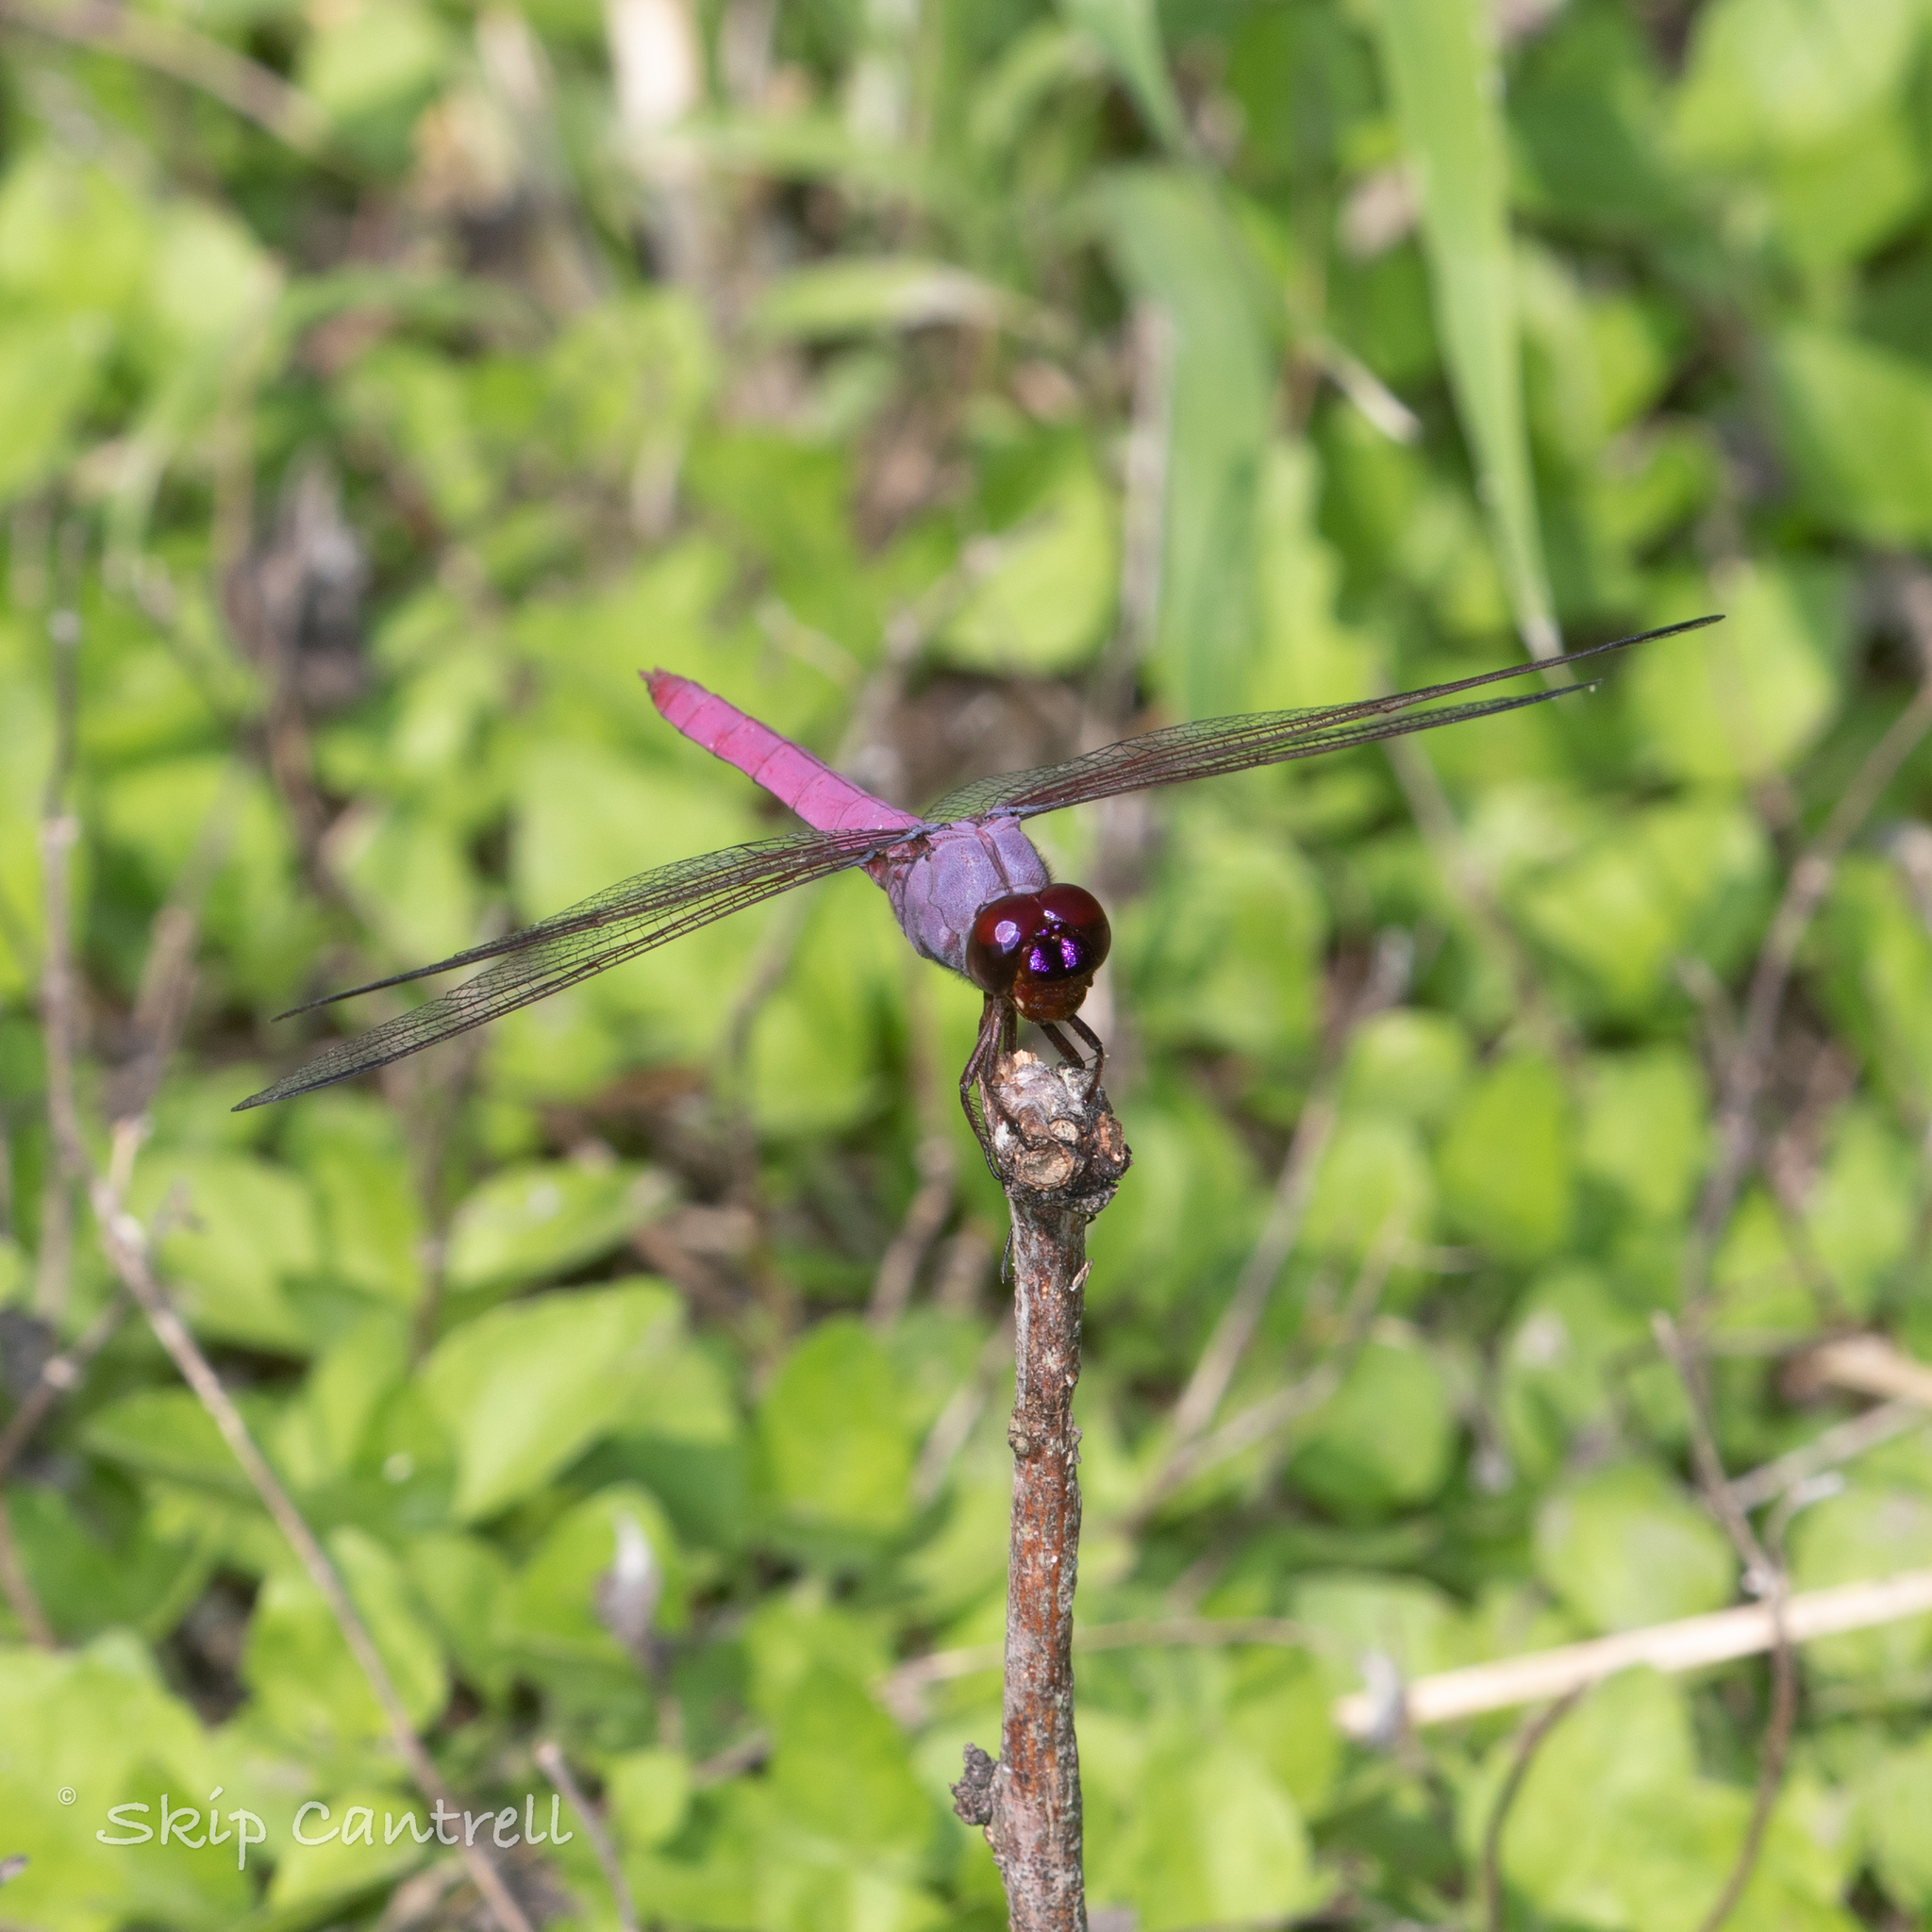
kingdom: Animalia
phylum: Arthropoda
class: Insecta
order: Odonata
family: Libellulidae
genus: Orthemis
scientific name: Orthemis ferruginea
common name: Roseate skimmer
